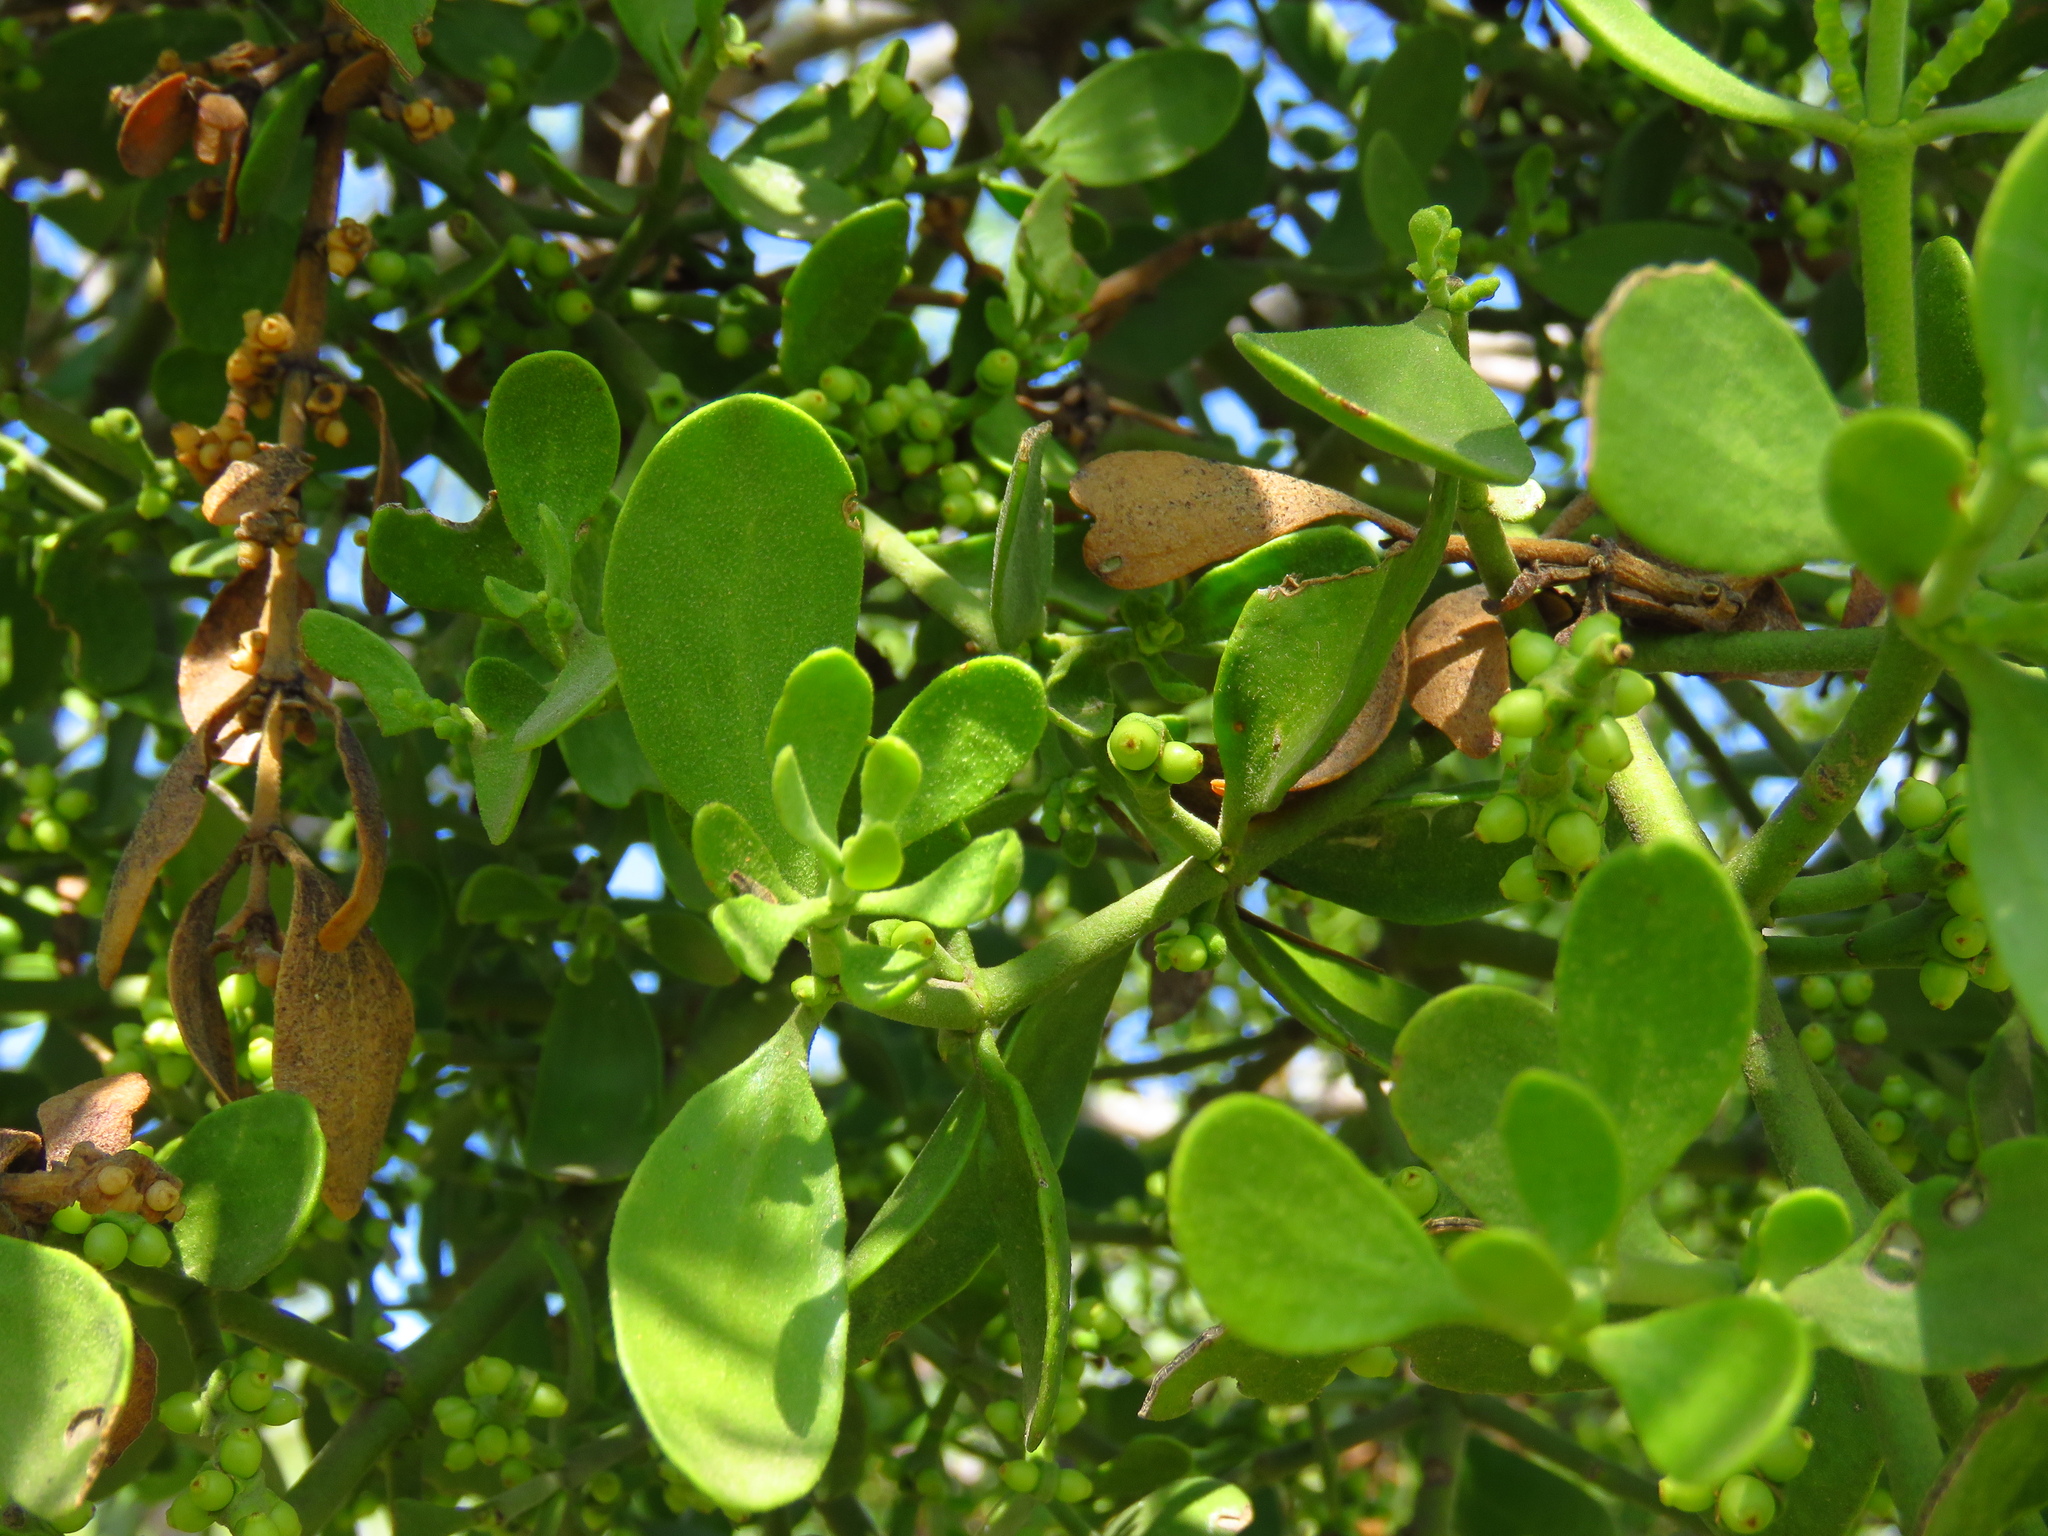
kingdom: Plantae
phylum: Tracheophyta
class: Magnoliopsida
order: Santalales
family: Viscaceae
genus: Phoradendron
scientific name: Phoradendron leucarpum
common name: Pacific mistletoe
